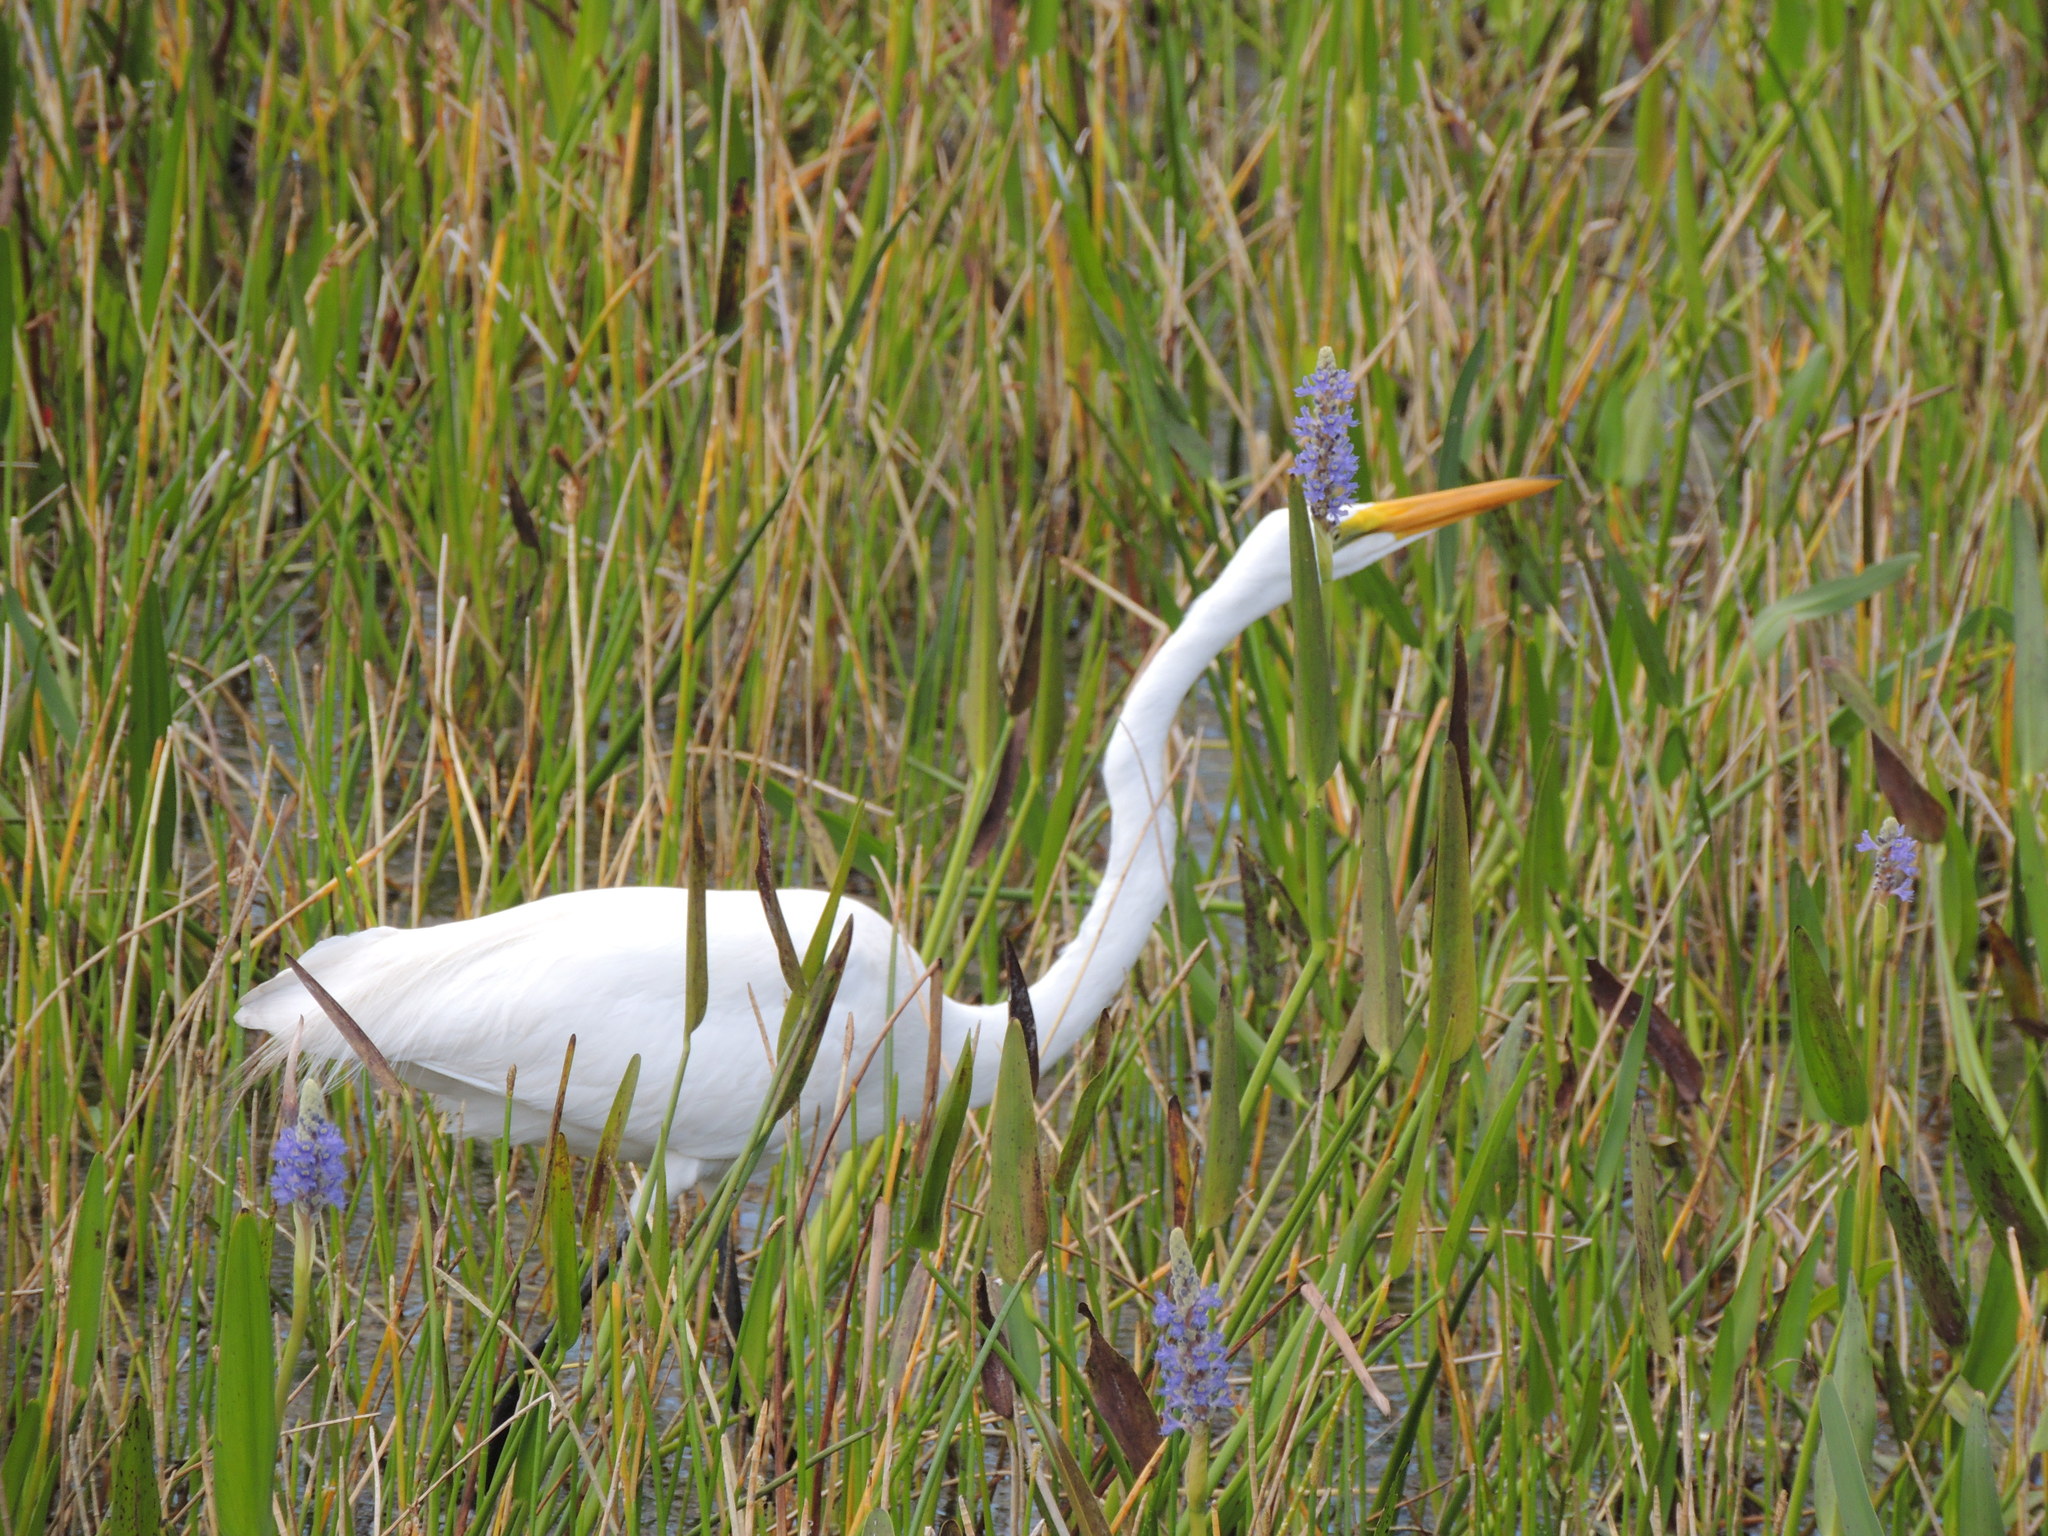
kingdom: Animalia
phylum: Chordata
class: Aves
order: Pelecaniformes
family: Ardeidae
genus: Ardea
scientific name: Ardea alba
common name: Great egret
